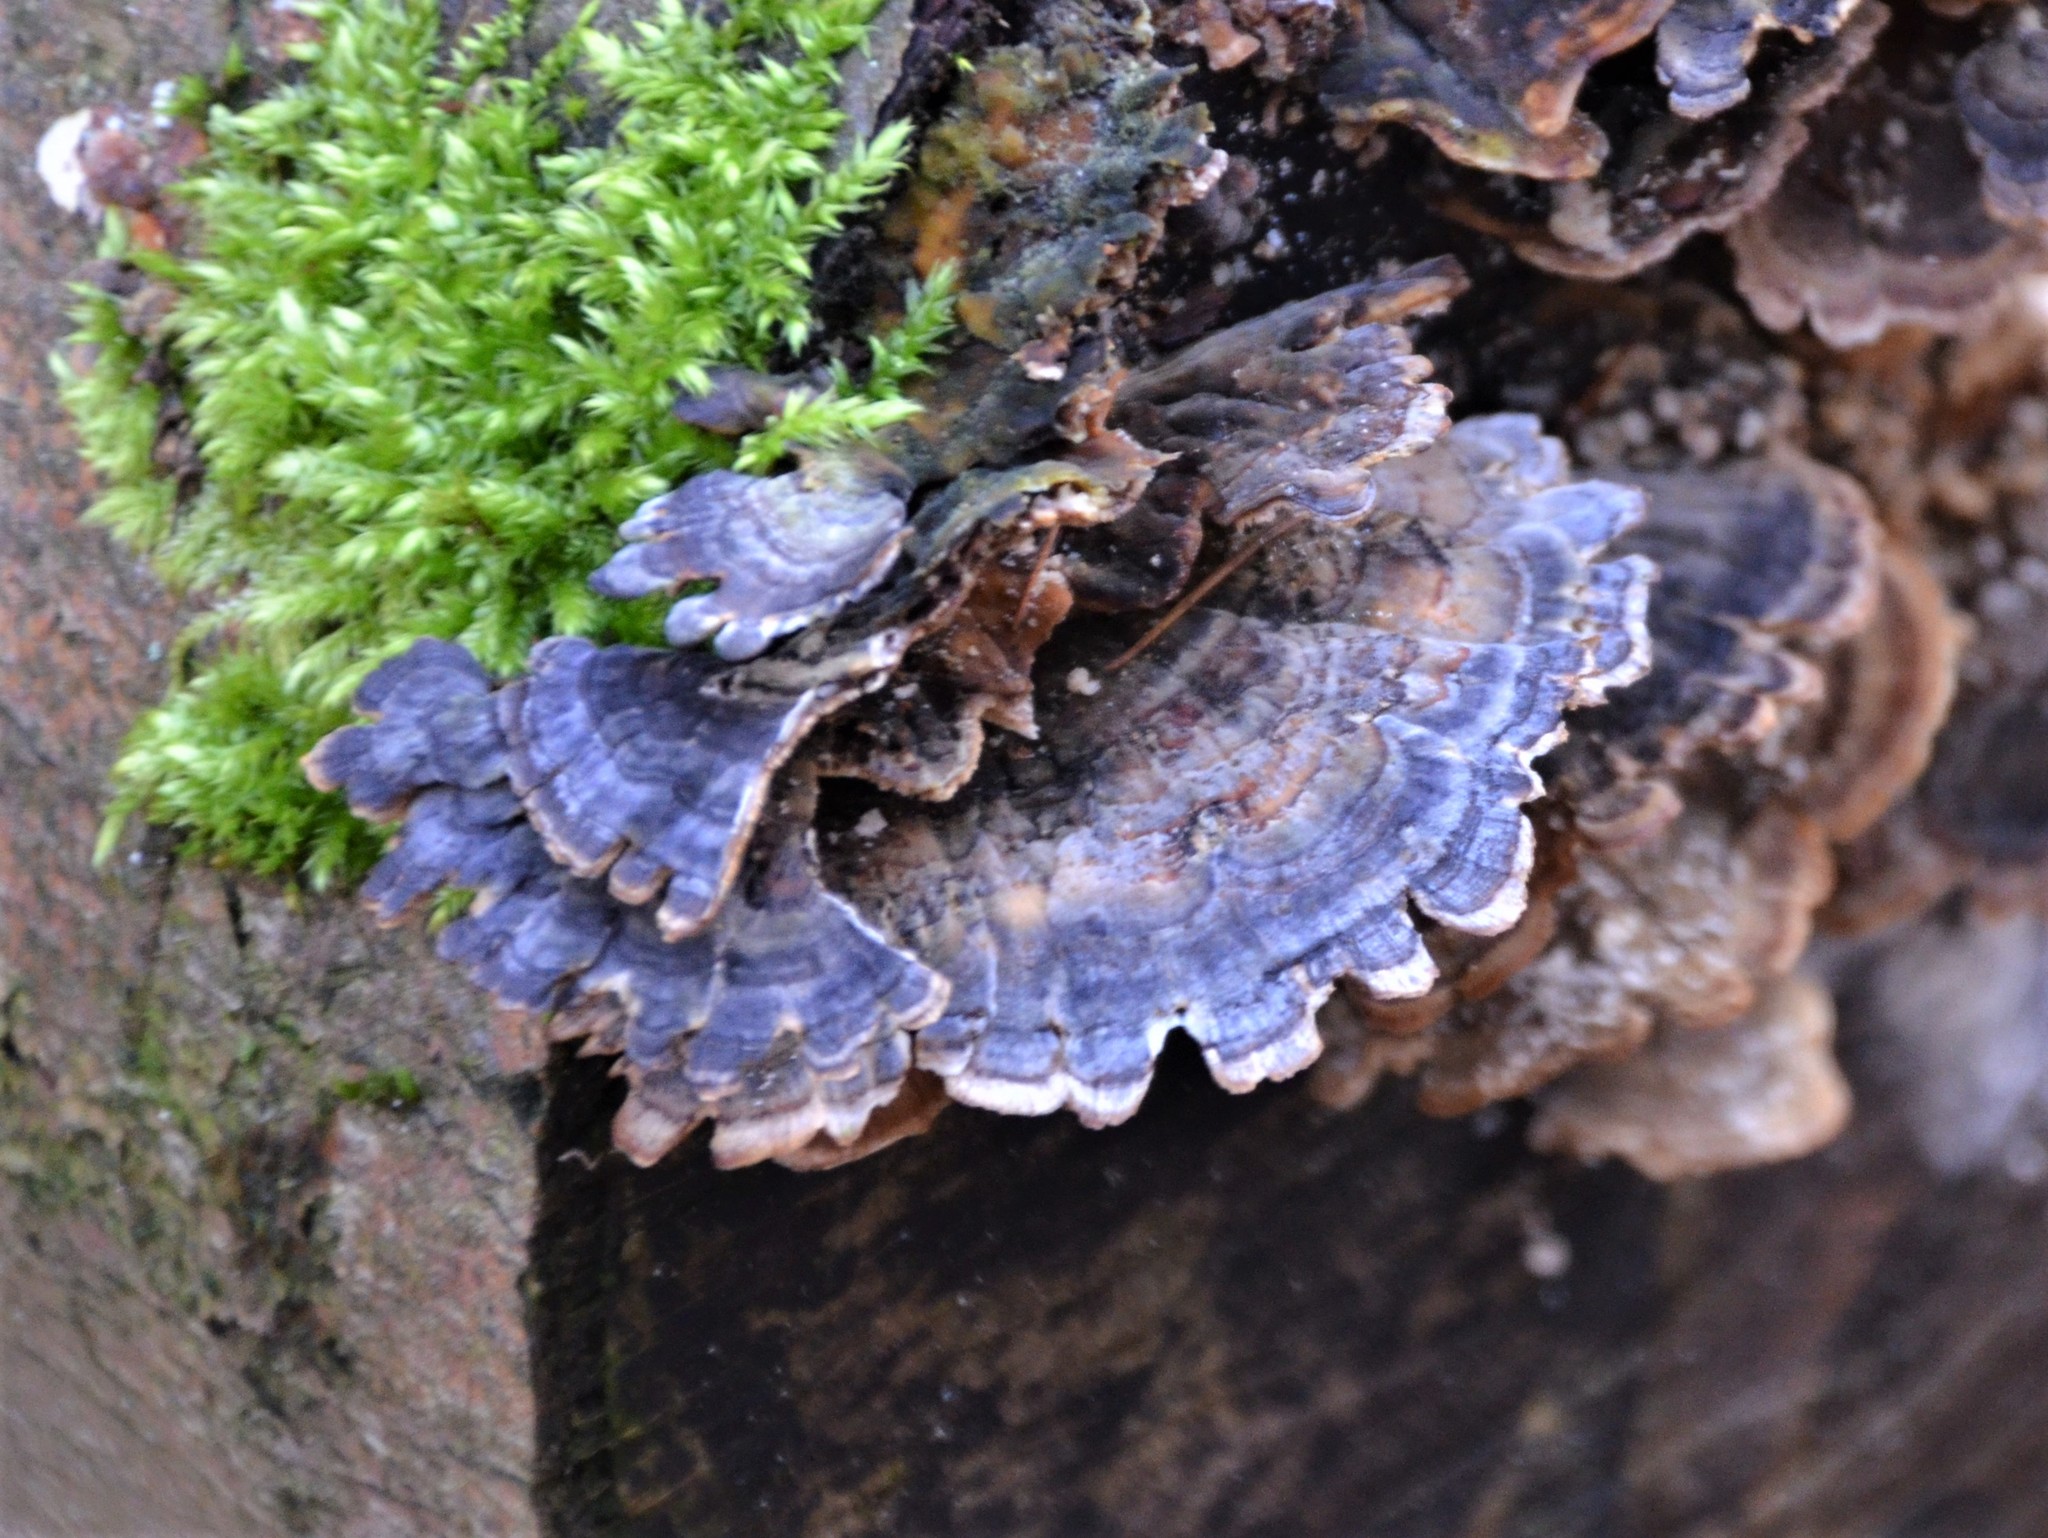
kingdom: Fungi
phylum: Basidiomycota
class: Agaricomycetes
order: Polyporales
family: Polyporaceae
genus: Trametes
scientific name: Trametes versicolor
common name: Turkeytail
